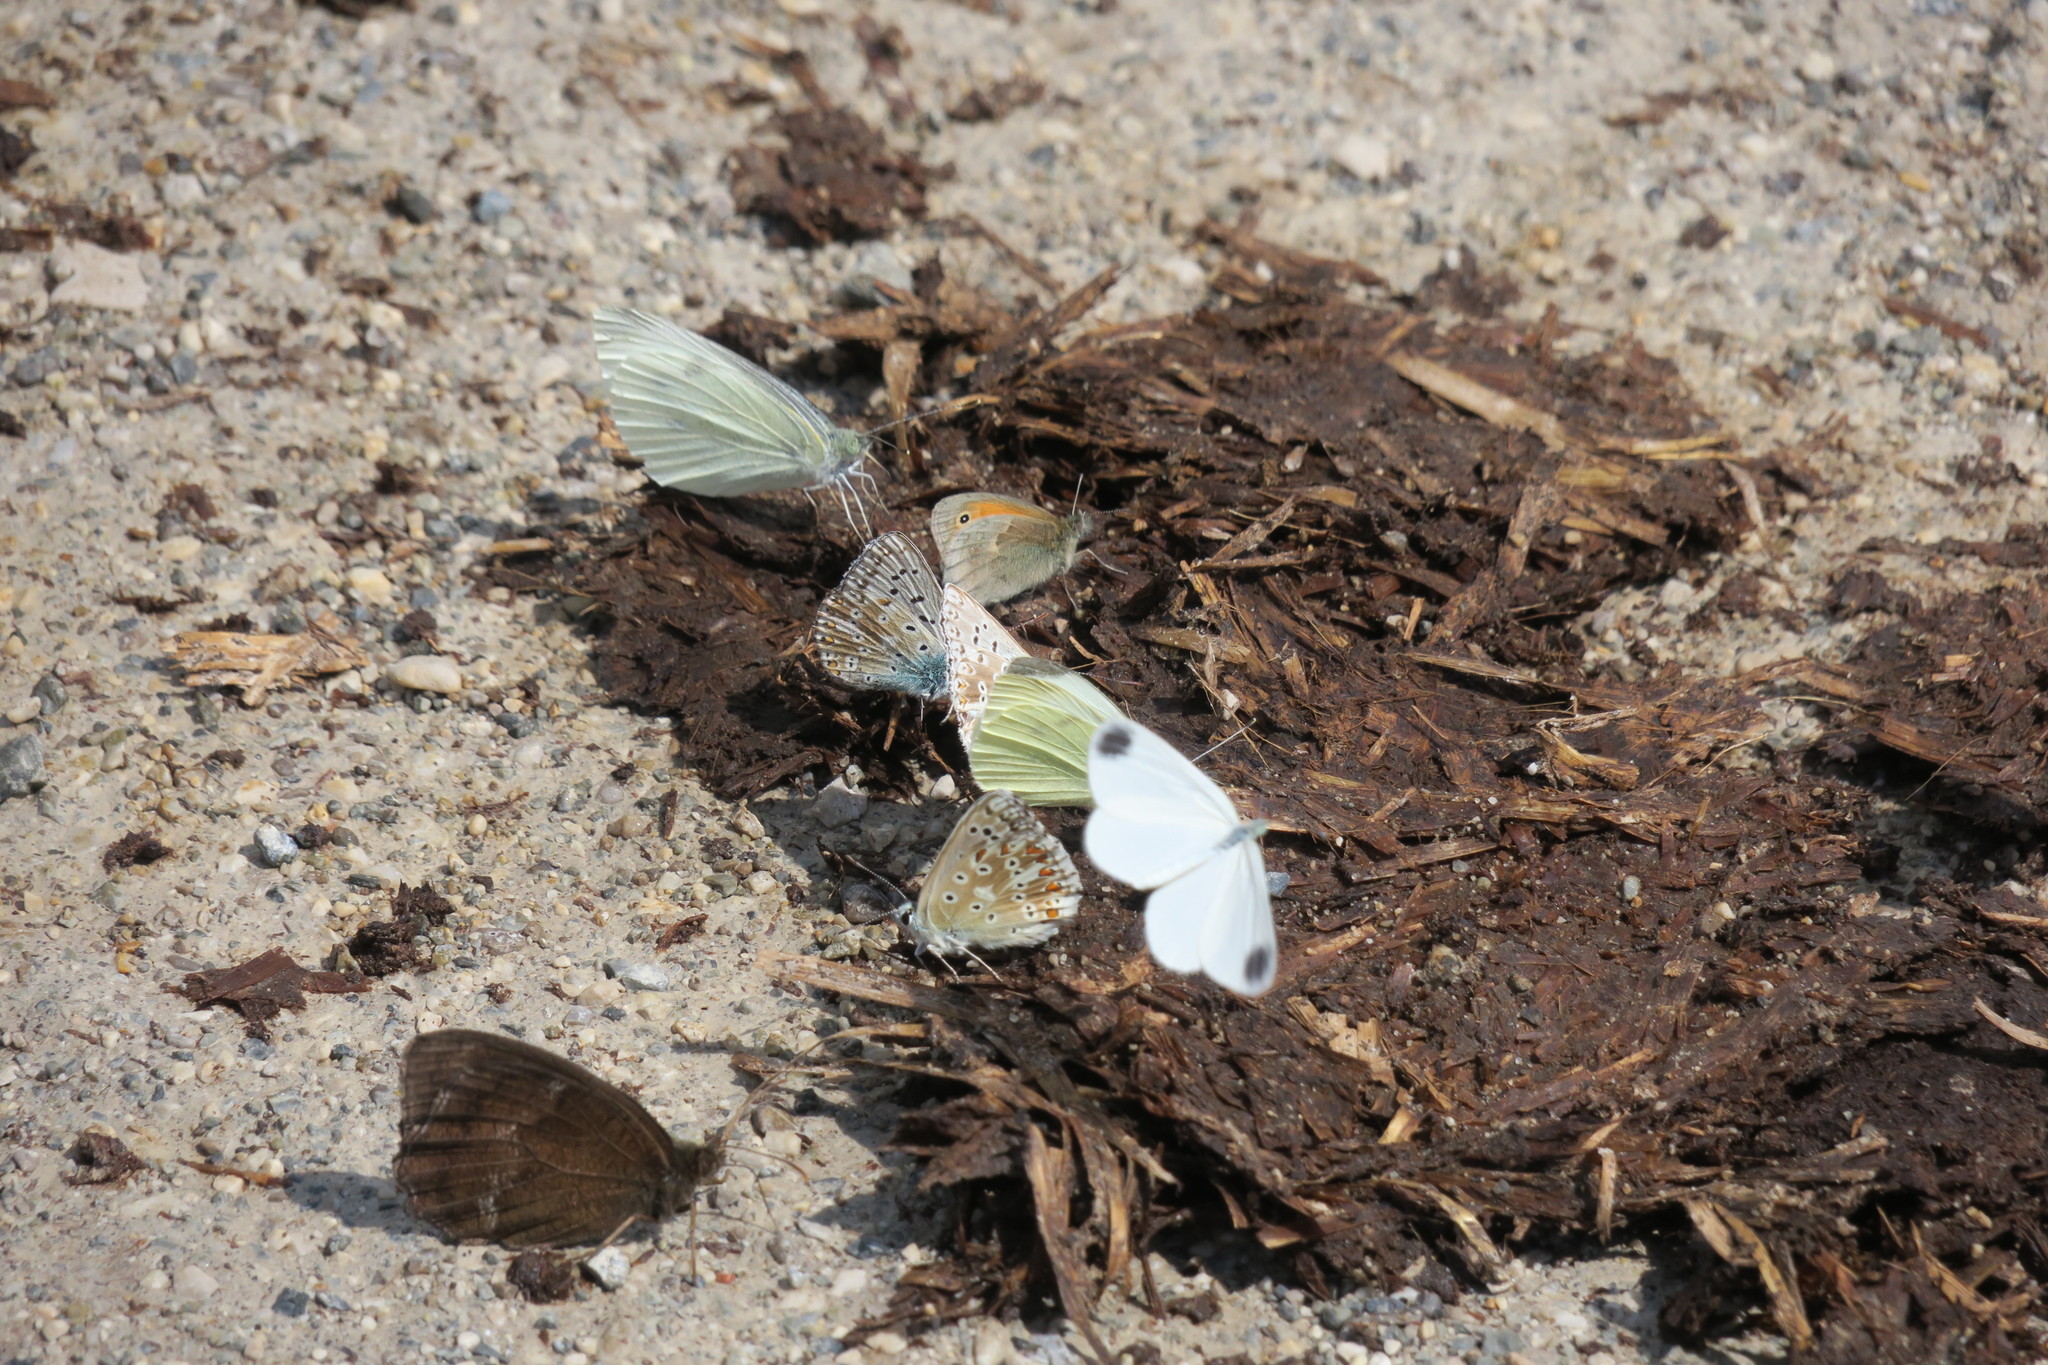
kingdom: Animalia
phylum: Arthropoda
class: Insecta
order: Lepidoptera
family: Nymphalidae
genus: Minois
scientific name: Minois dryas
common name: Dryad
